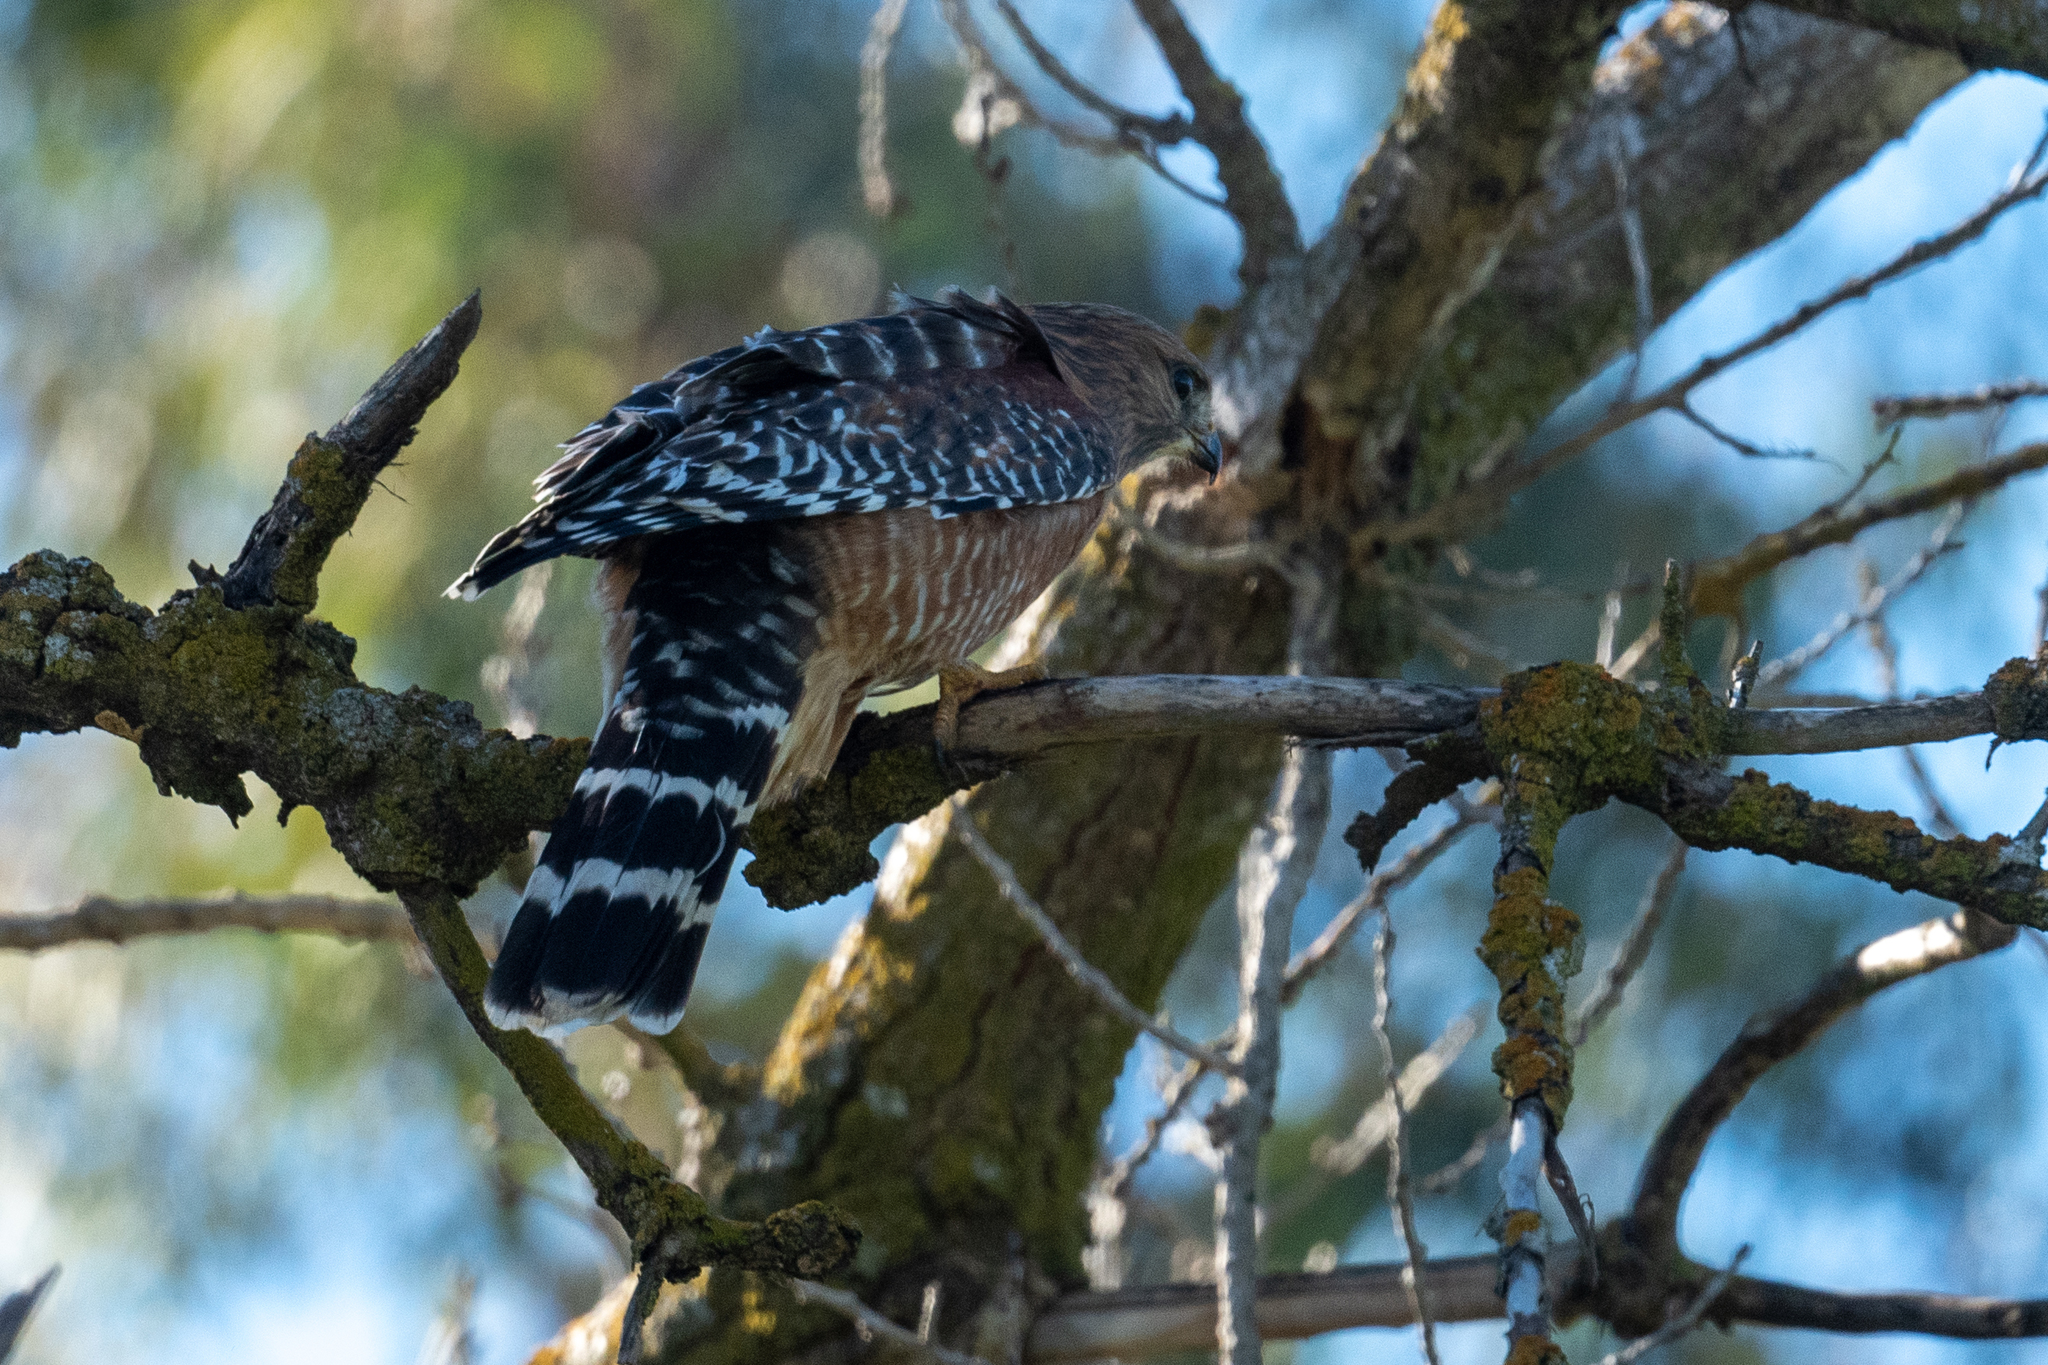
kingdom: Animalia
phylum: Chordata
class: Aves
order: Accipitriformes
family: Accipitridae
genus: Buteo
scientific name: Buteo lineatus
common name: Red-shouldered hawk
